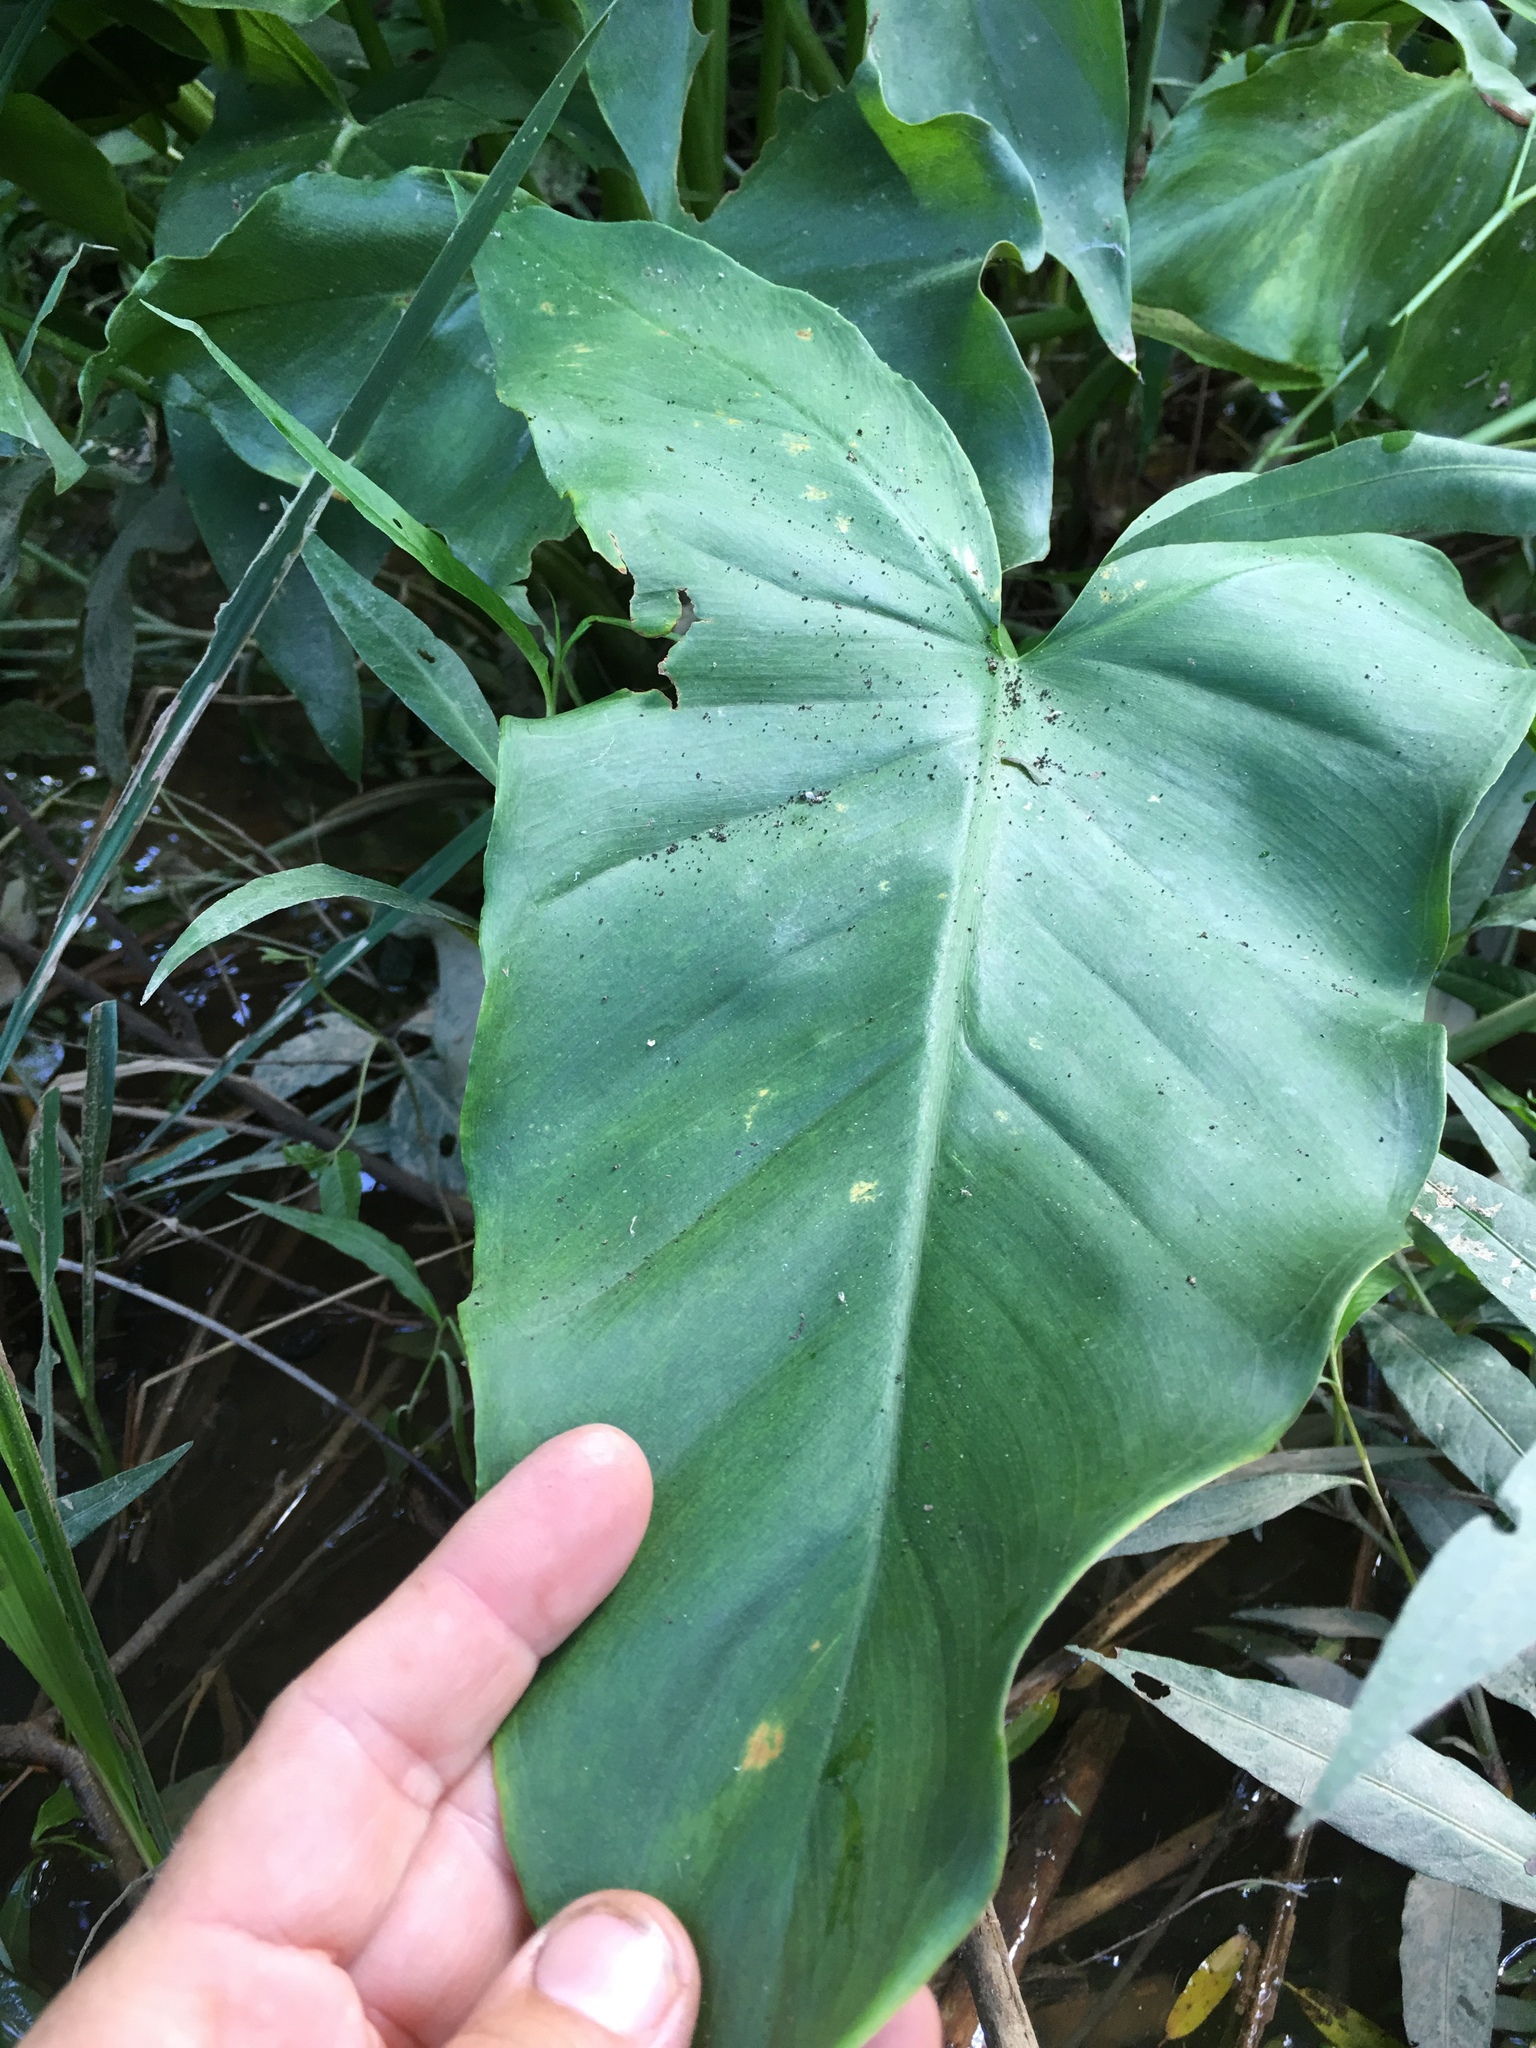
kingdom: Plantae
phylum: Tracheophyta
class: Liliopsida
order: Alismatales
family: Araceae
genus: Peltandra
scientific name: Peltandra virginica
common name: Arrow arum
